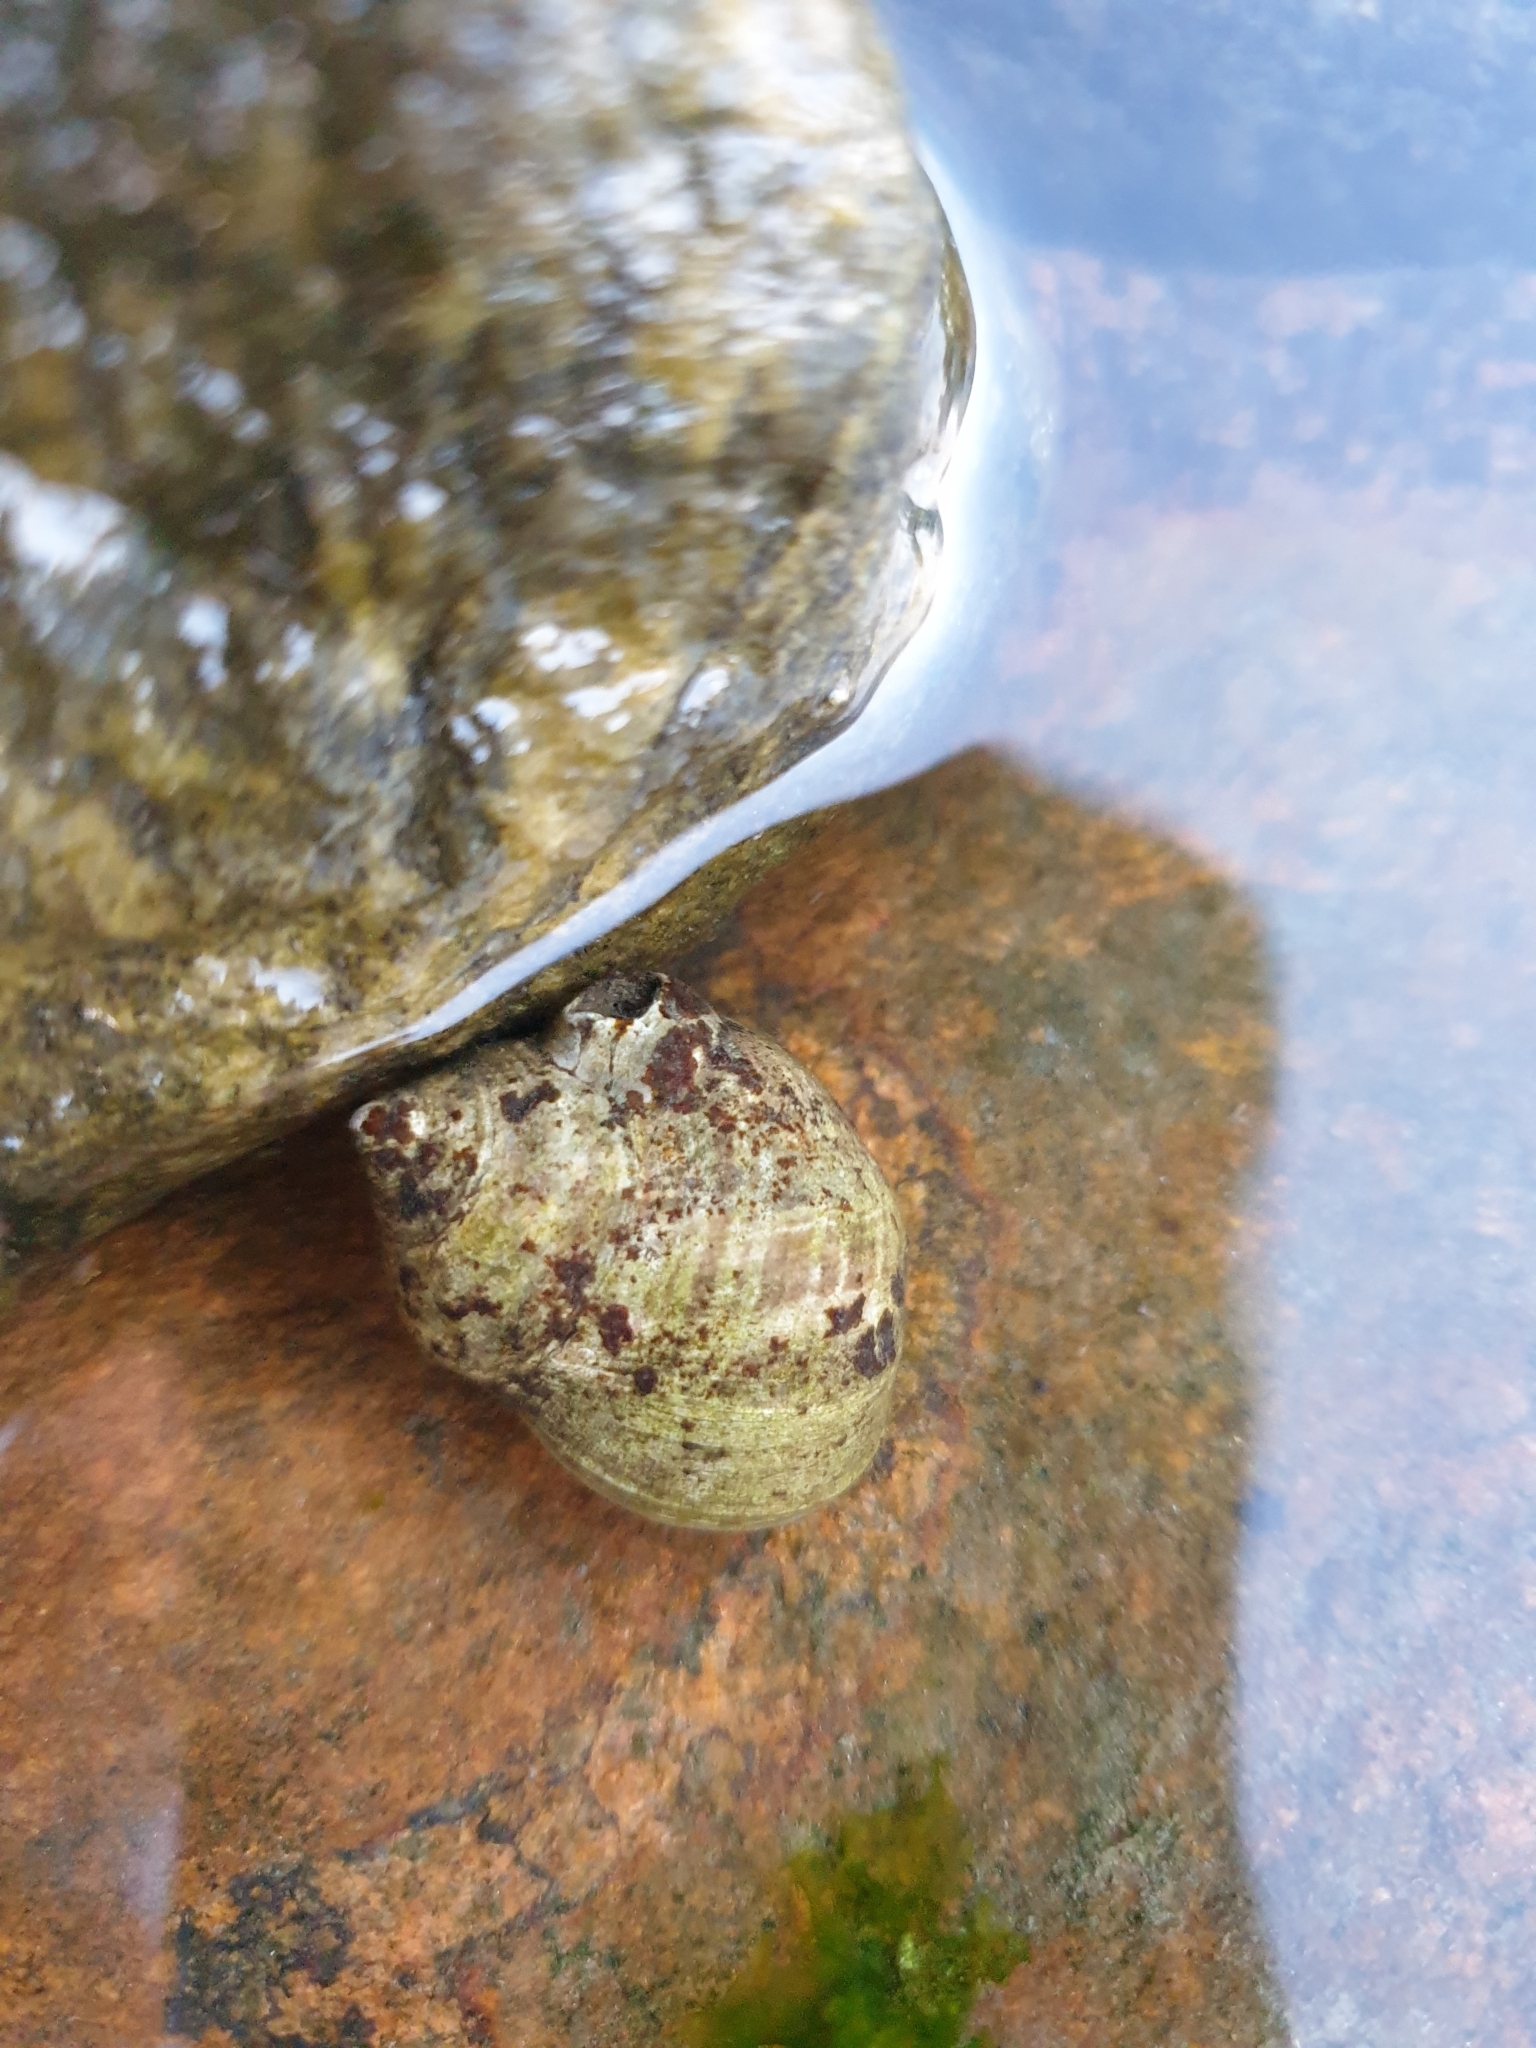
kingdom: Animalia
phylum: Mollusca
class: Gastropoda
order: Littorinimorpha
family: Littorinidae
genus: Littorina
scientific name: Littorina littorea
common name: Common periwinkle
